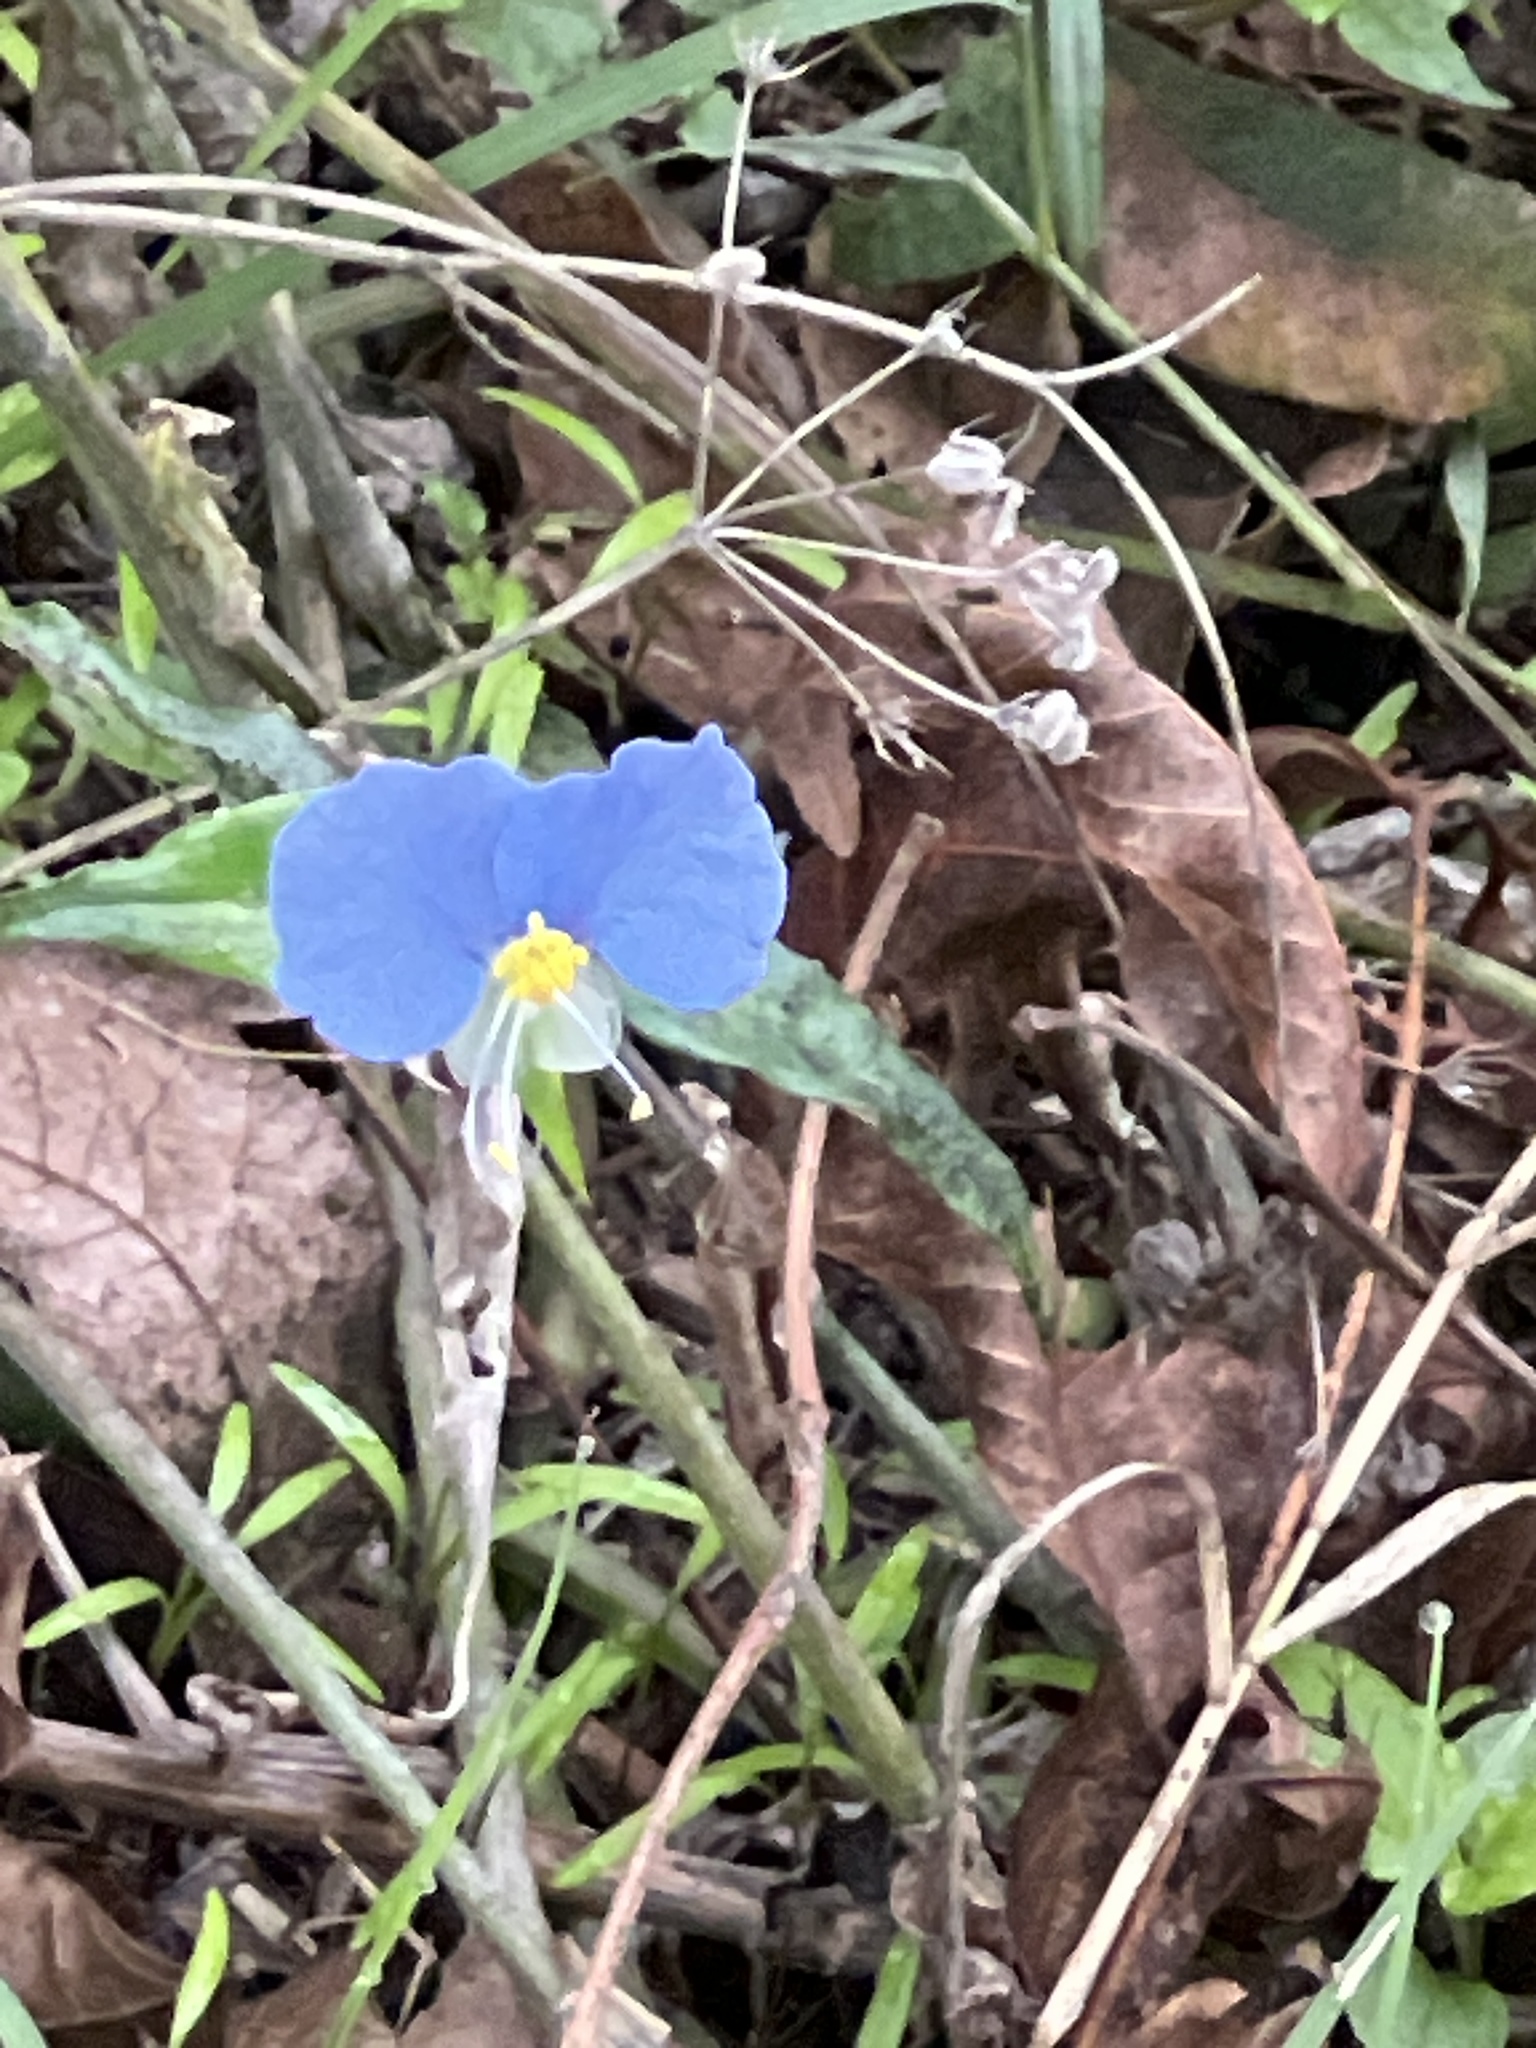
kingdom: Plantae
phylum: Tracheophyta
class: Liliopsida
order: Commelinales
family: Commelinaceae
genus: Commelina
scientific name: Commelina erecta
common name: Blousel blommetjie
